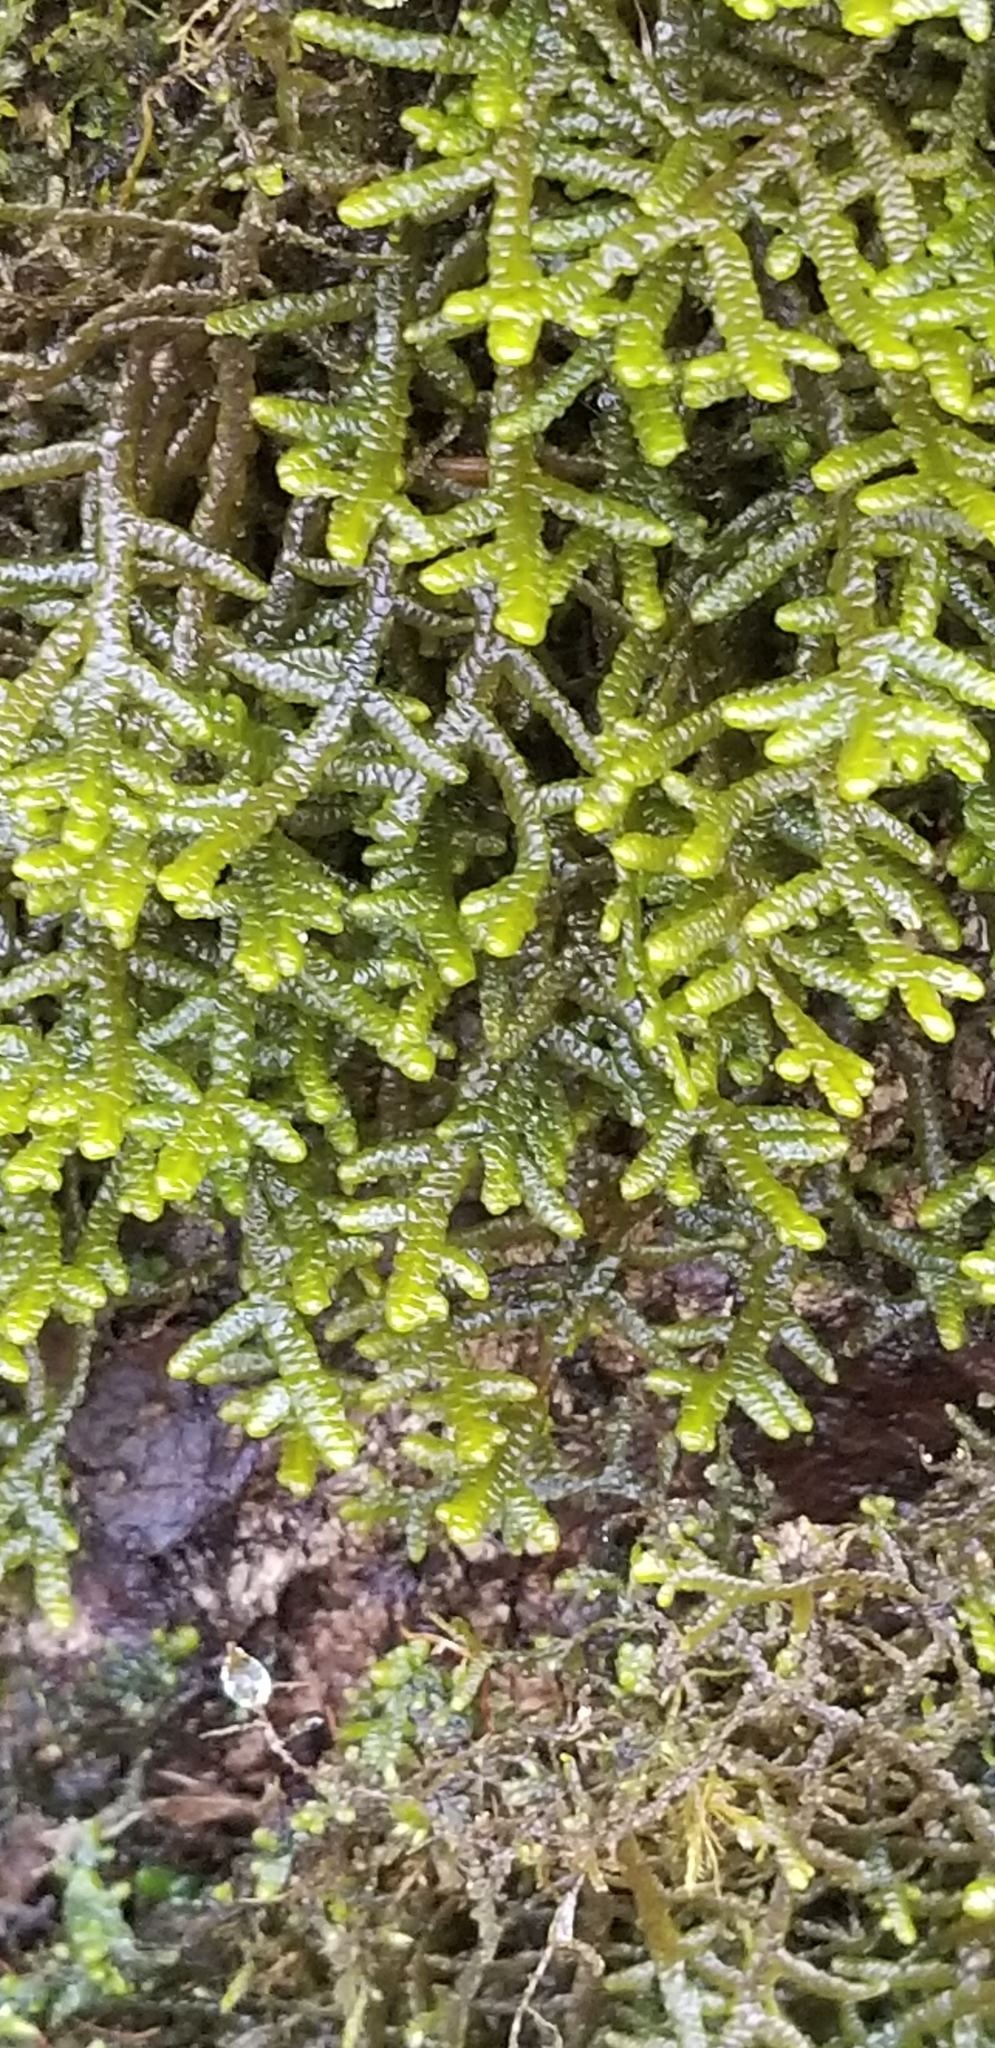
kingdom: Plantae
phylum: Marchantiophyta
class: Jungermanniopsida
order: Porellales
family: Porellaceae
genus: Porella
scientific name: Porella platyphylla
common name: Wall scalewort
